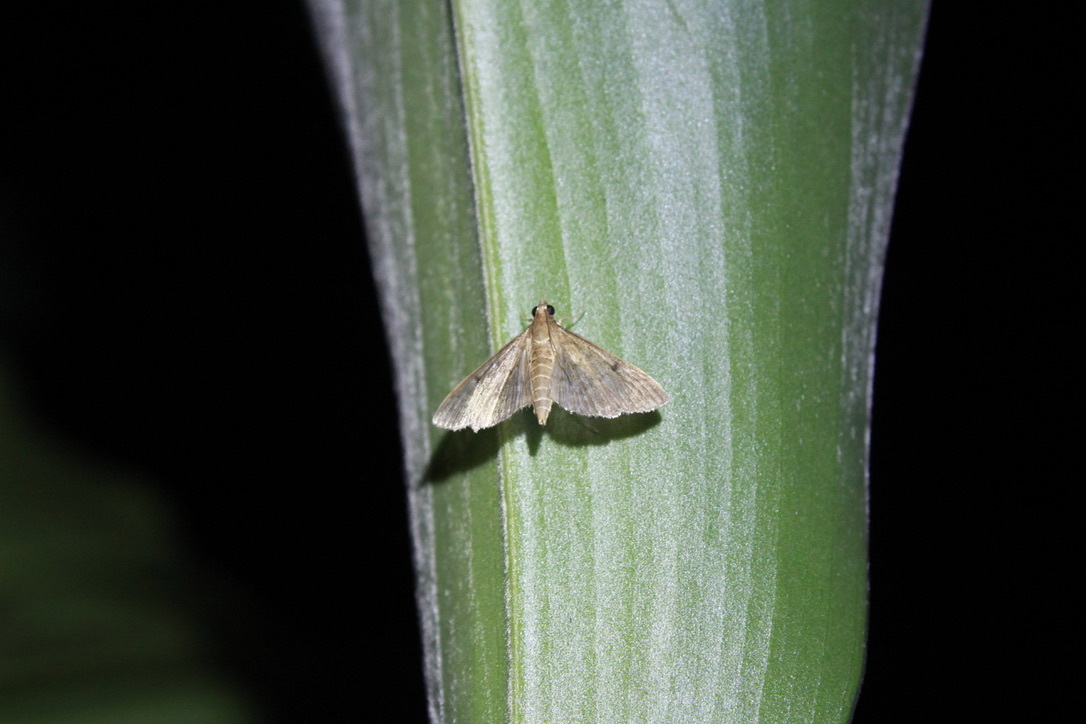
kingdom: Animalia
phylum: Arthropoda
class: Insecta
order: Lepidoptera
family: Crambidae
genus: Herpetogramma
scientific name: Herpetogramma phaeopteralis
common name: Dusky herpetogramma moth
